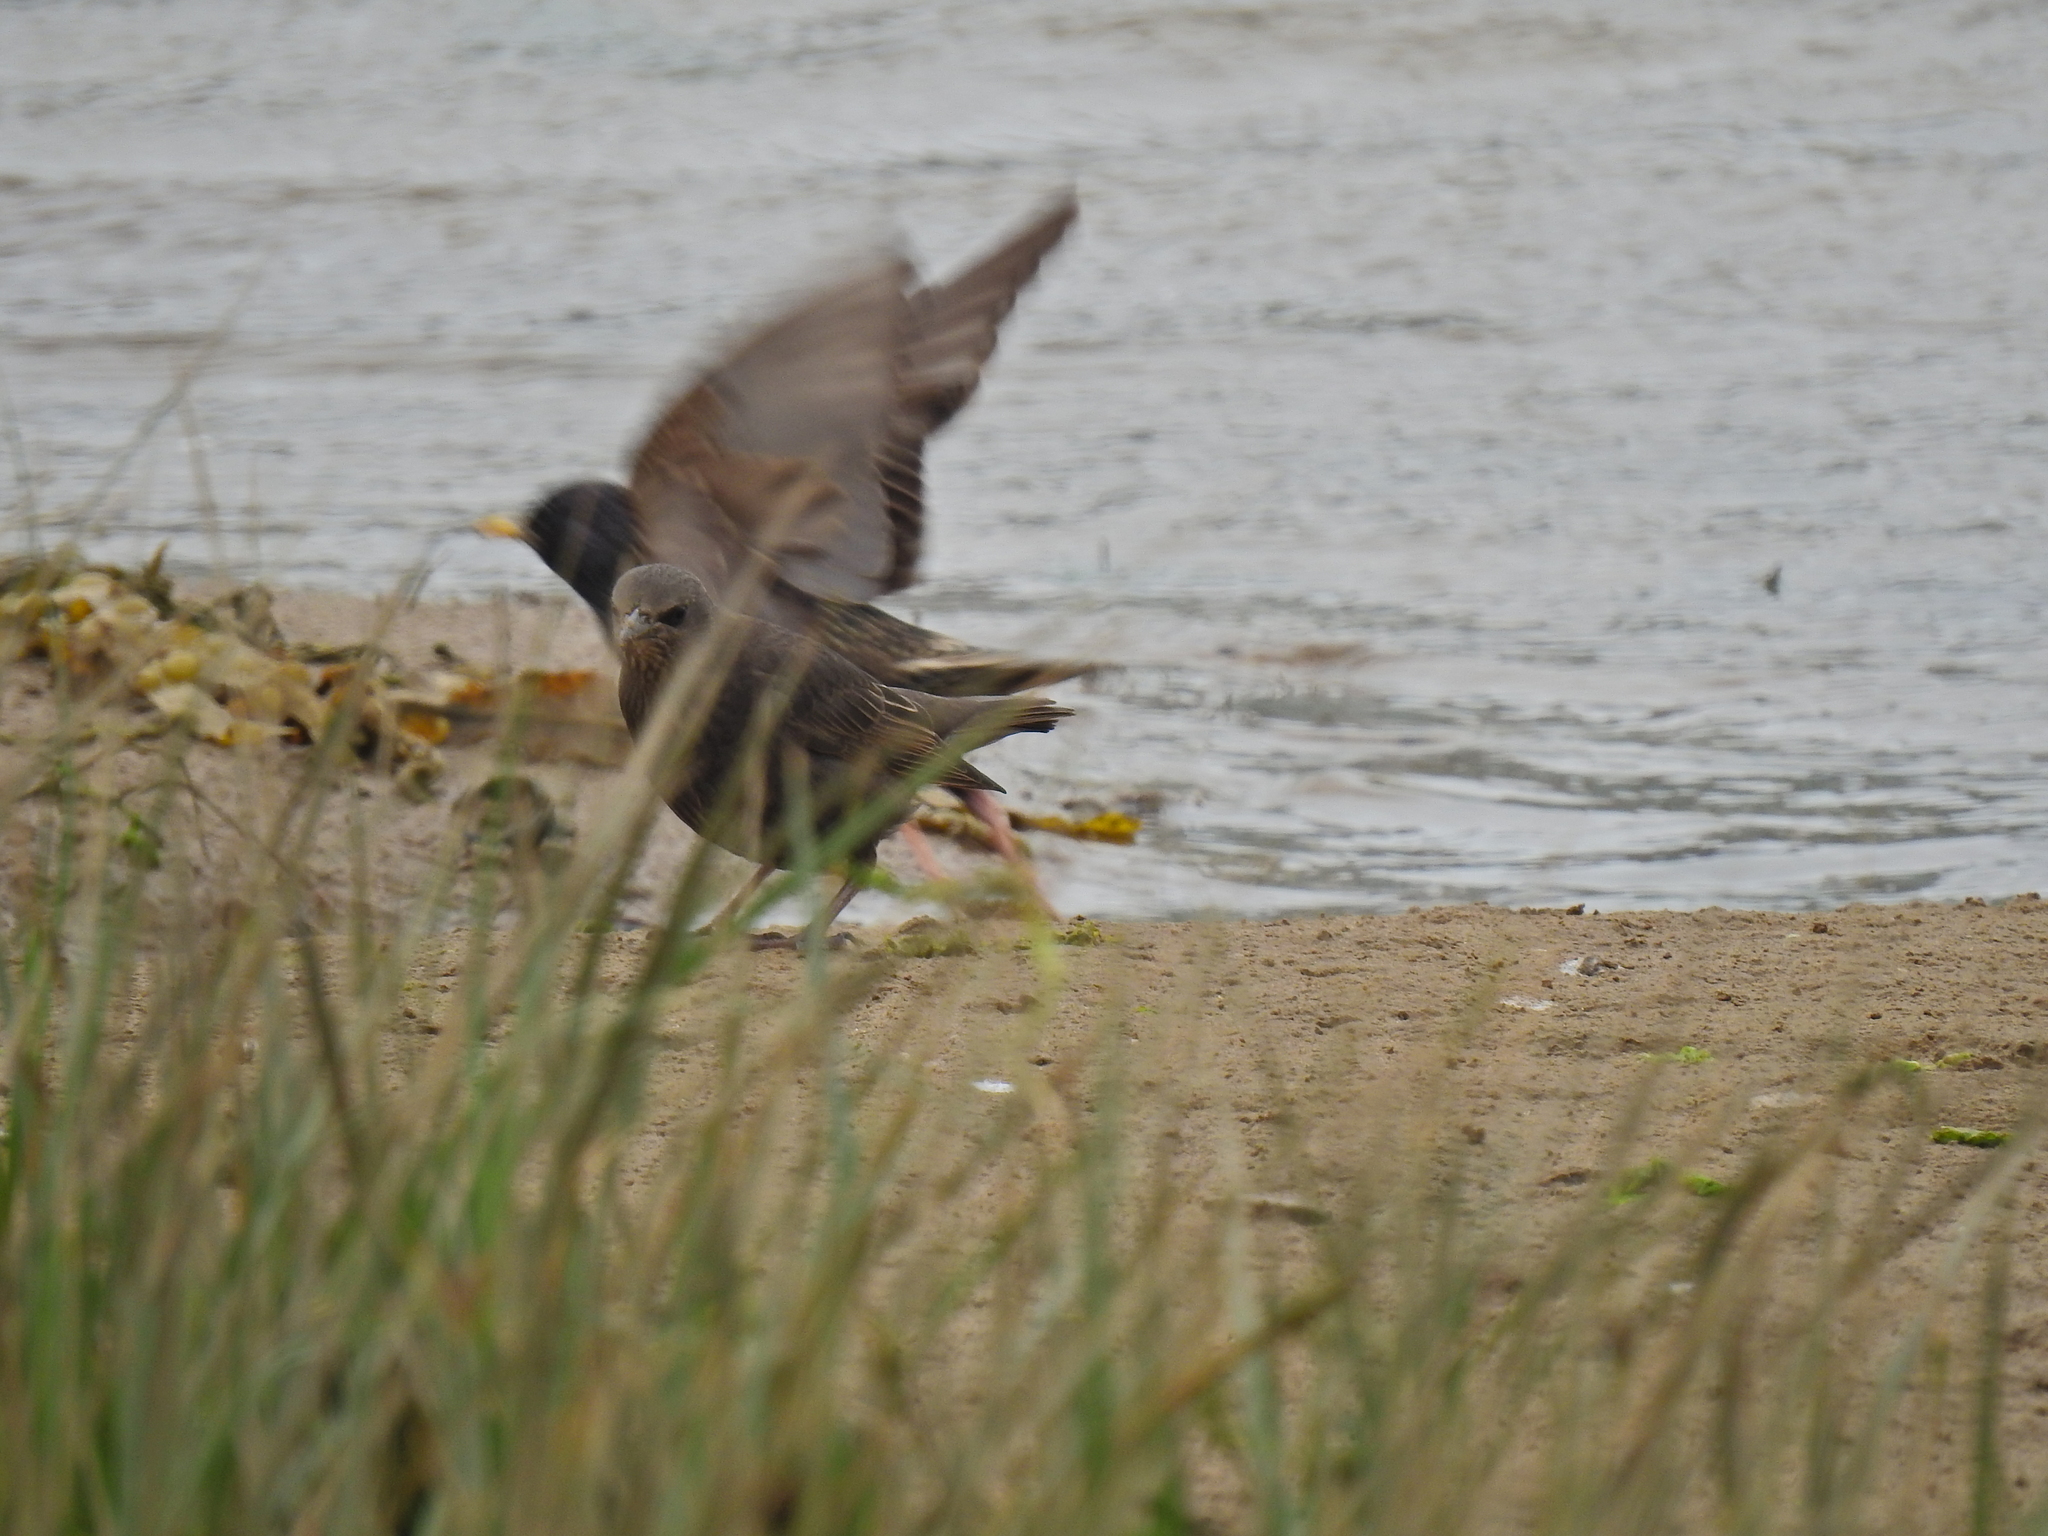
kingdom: Animalia
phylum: Chordata
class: Aves
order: Passeriformes
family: Sturnidae
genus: Sturnus
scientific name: Sturnus vulgaris
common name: Common starling
